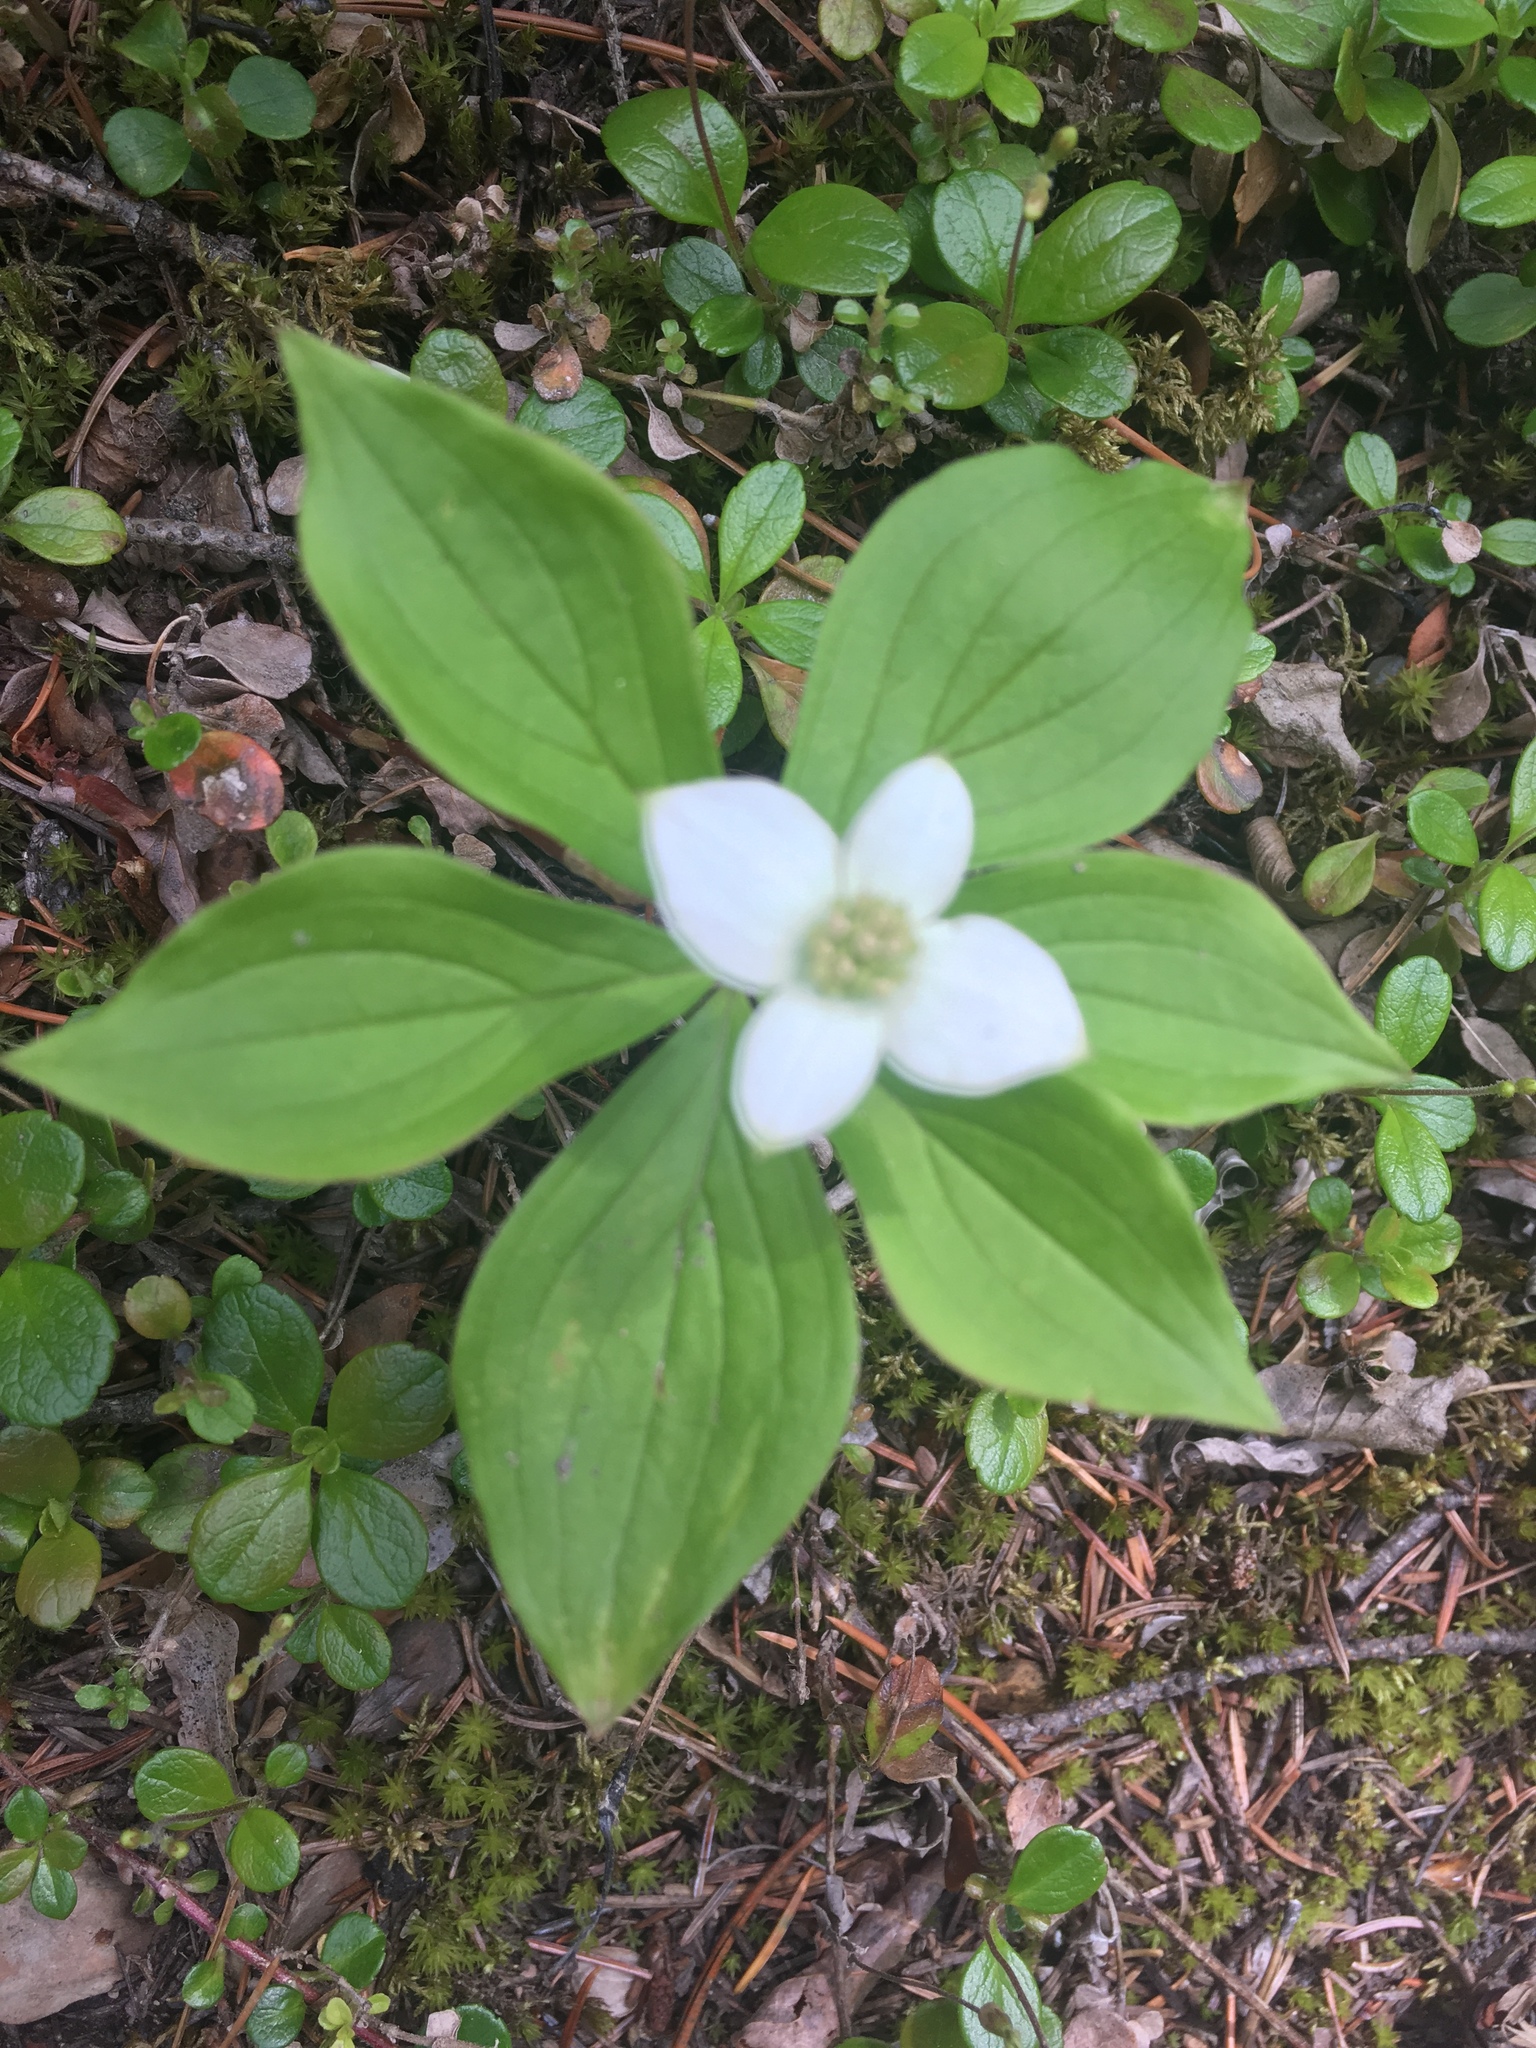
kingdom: Plantae
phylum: Tracheophyta
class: Magnoliopsida
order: Cornales
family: Cornaceae
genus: Cornus
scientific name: Cornus canadensis
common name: Creeping dogwood
